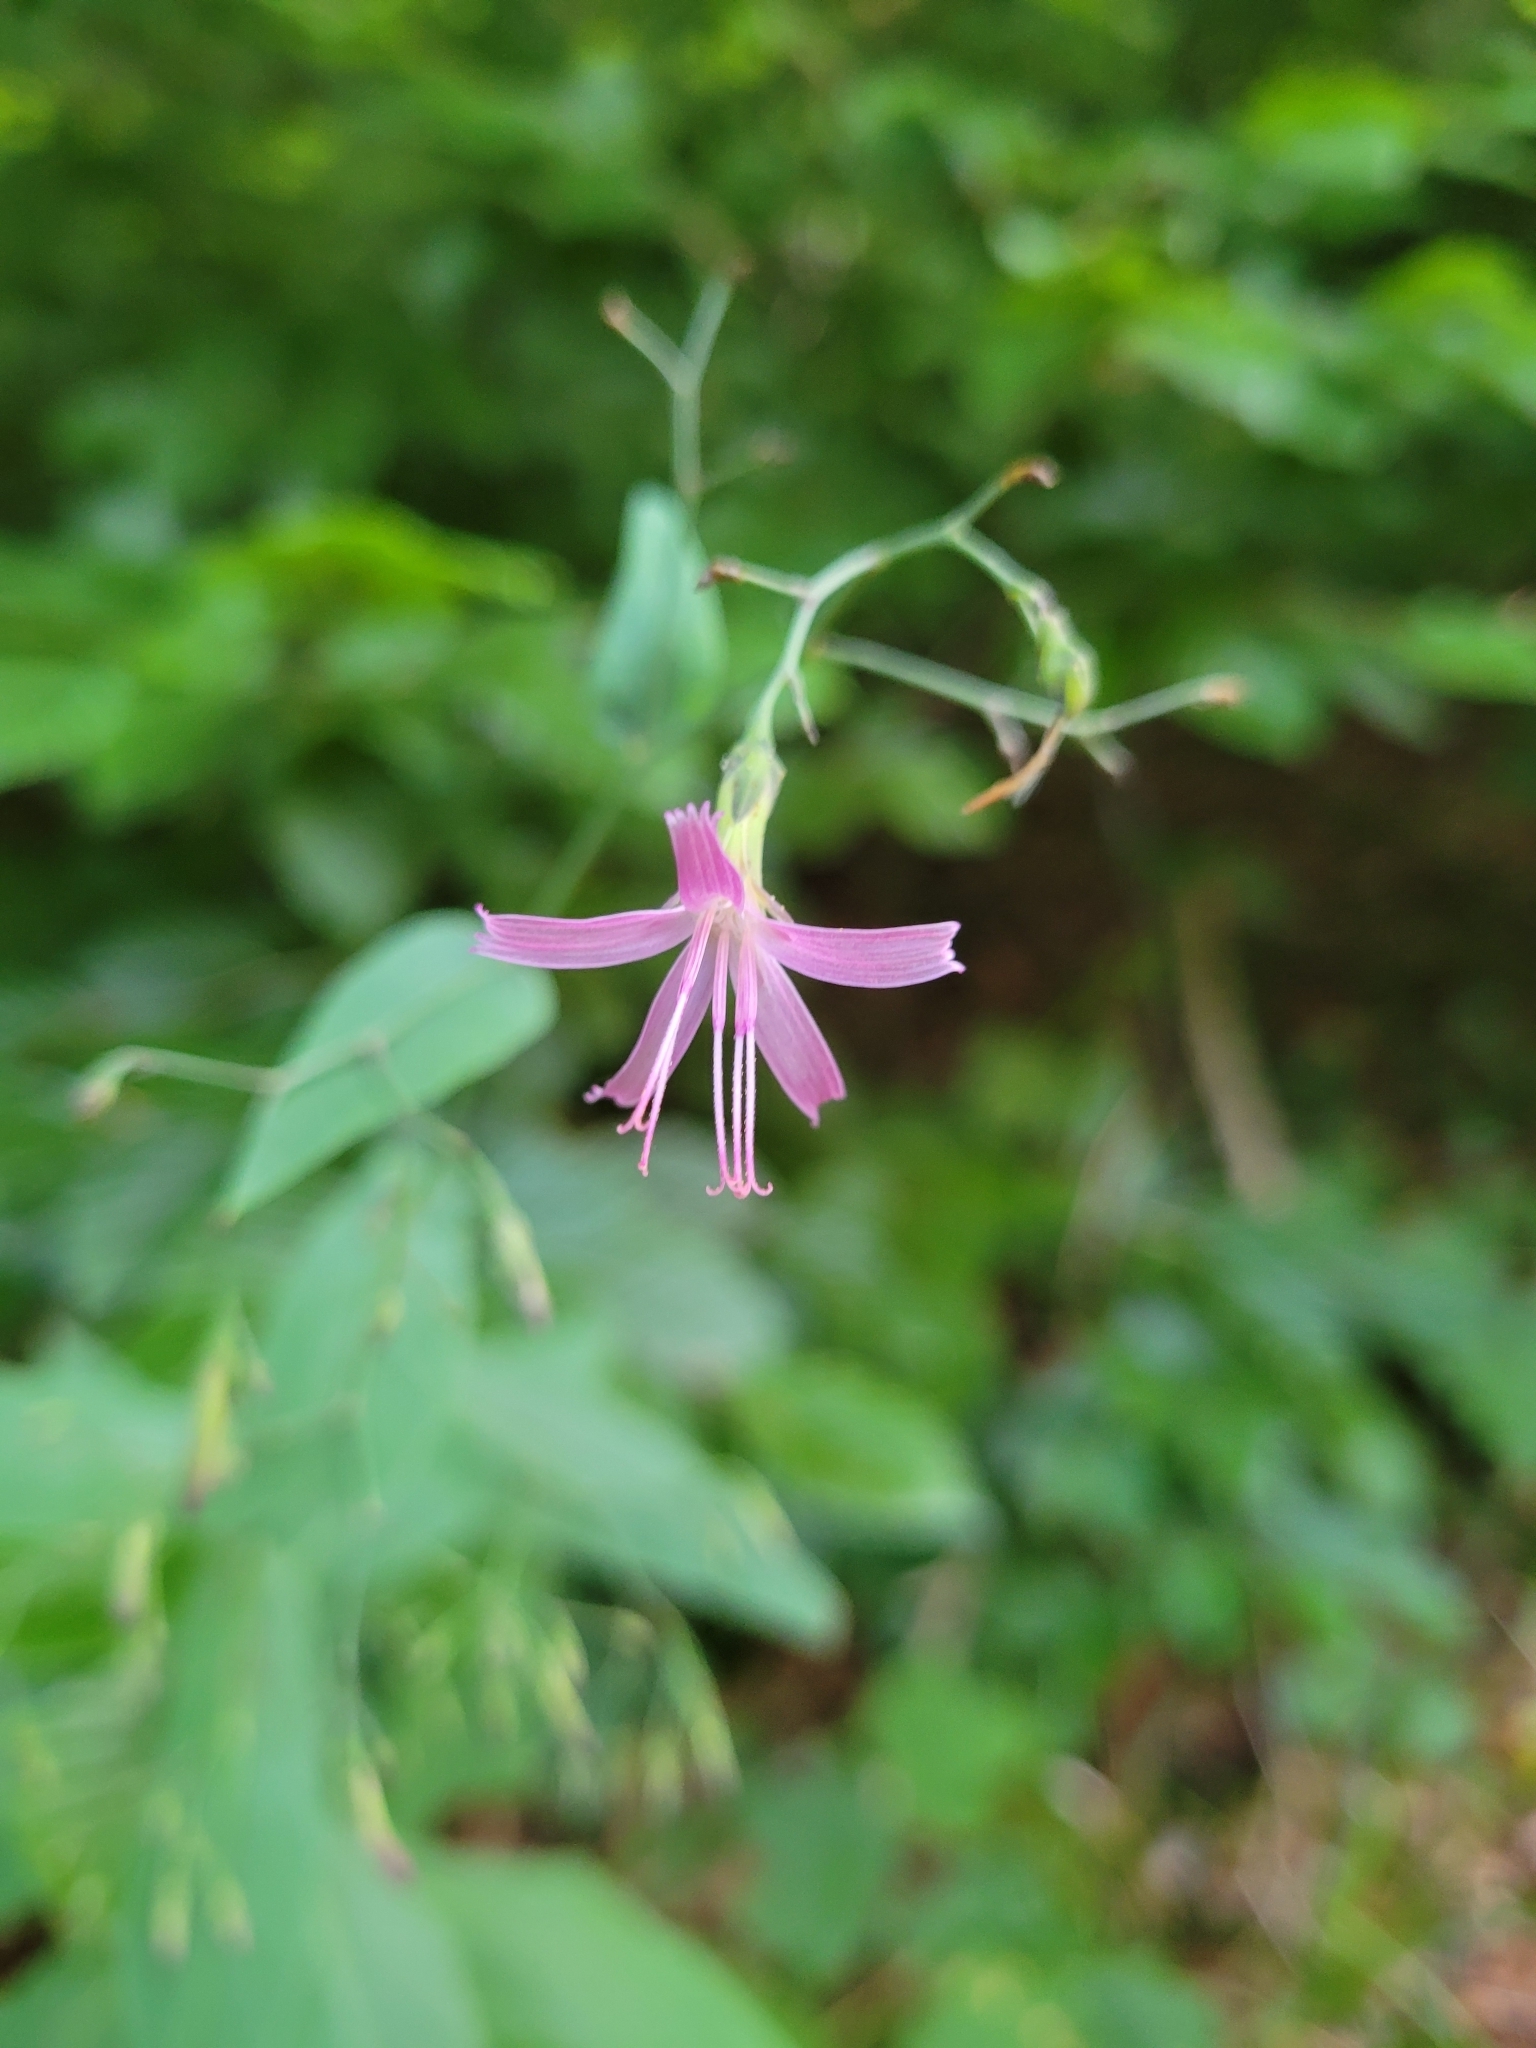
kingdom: Plantae
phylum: Tracheophyta
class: Magnoliopsida
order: Asterales
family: Asteraceae
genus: Prenanthes
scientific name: Prenanthes purpurea
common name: Purple lettuce
